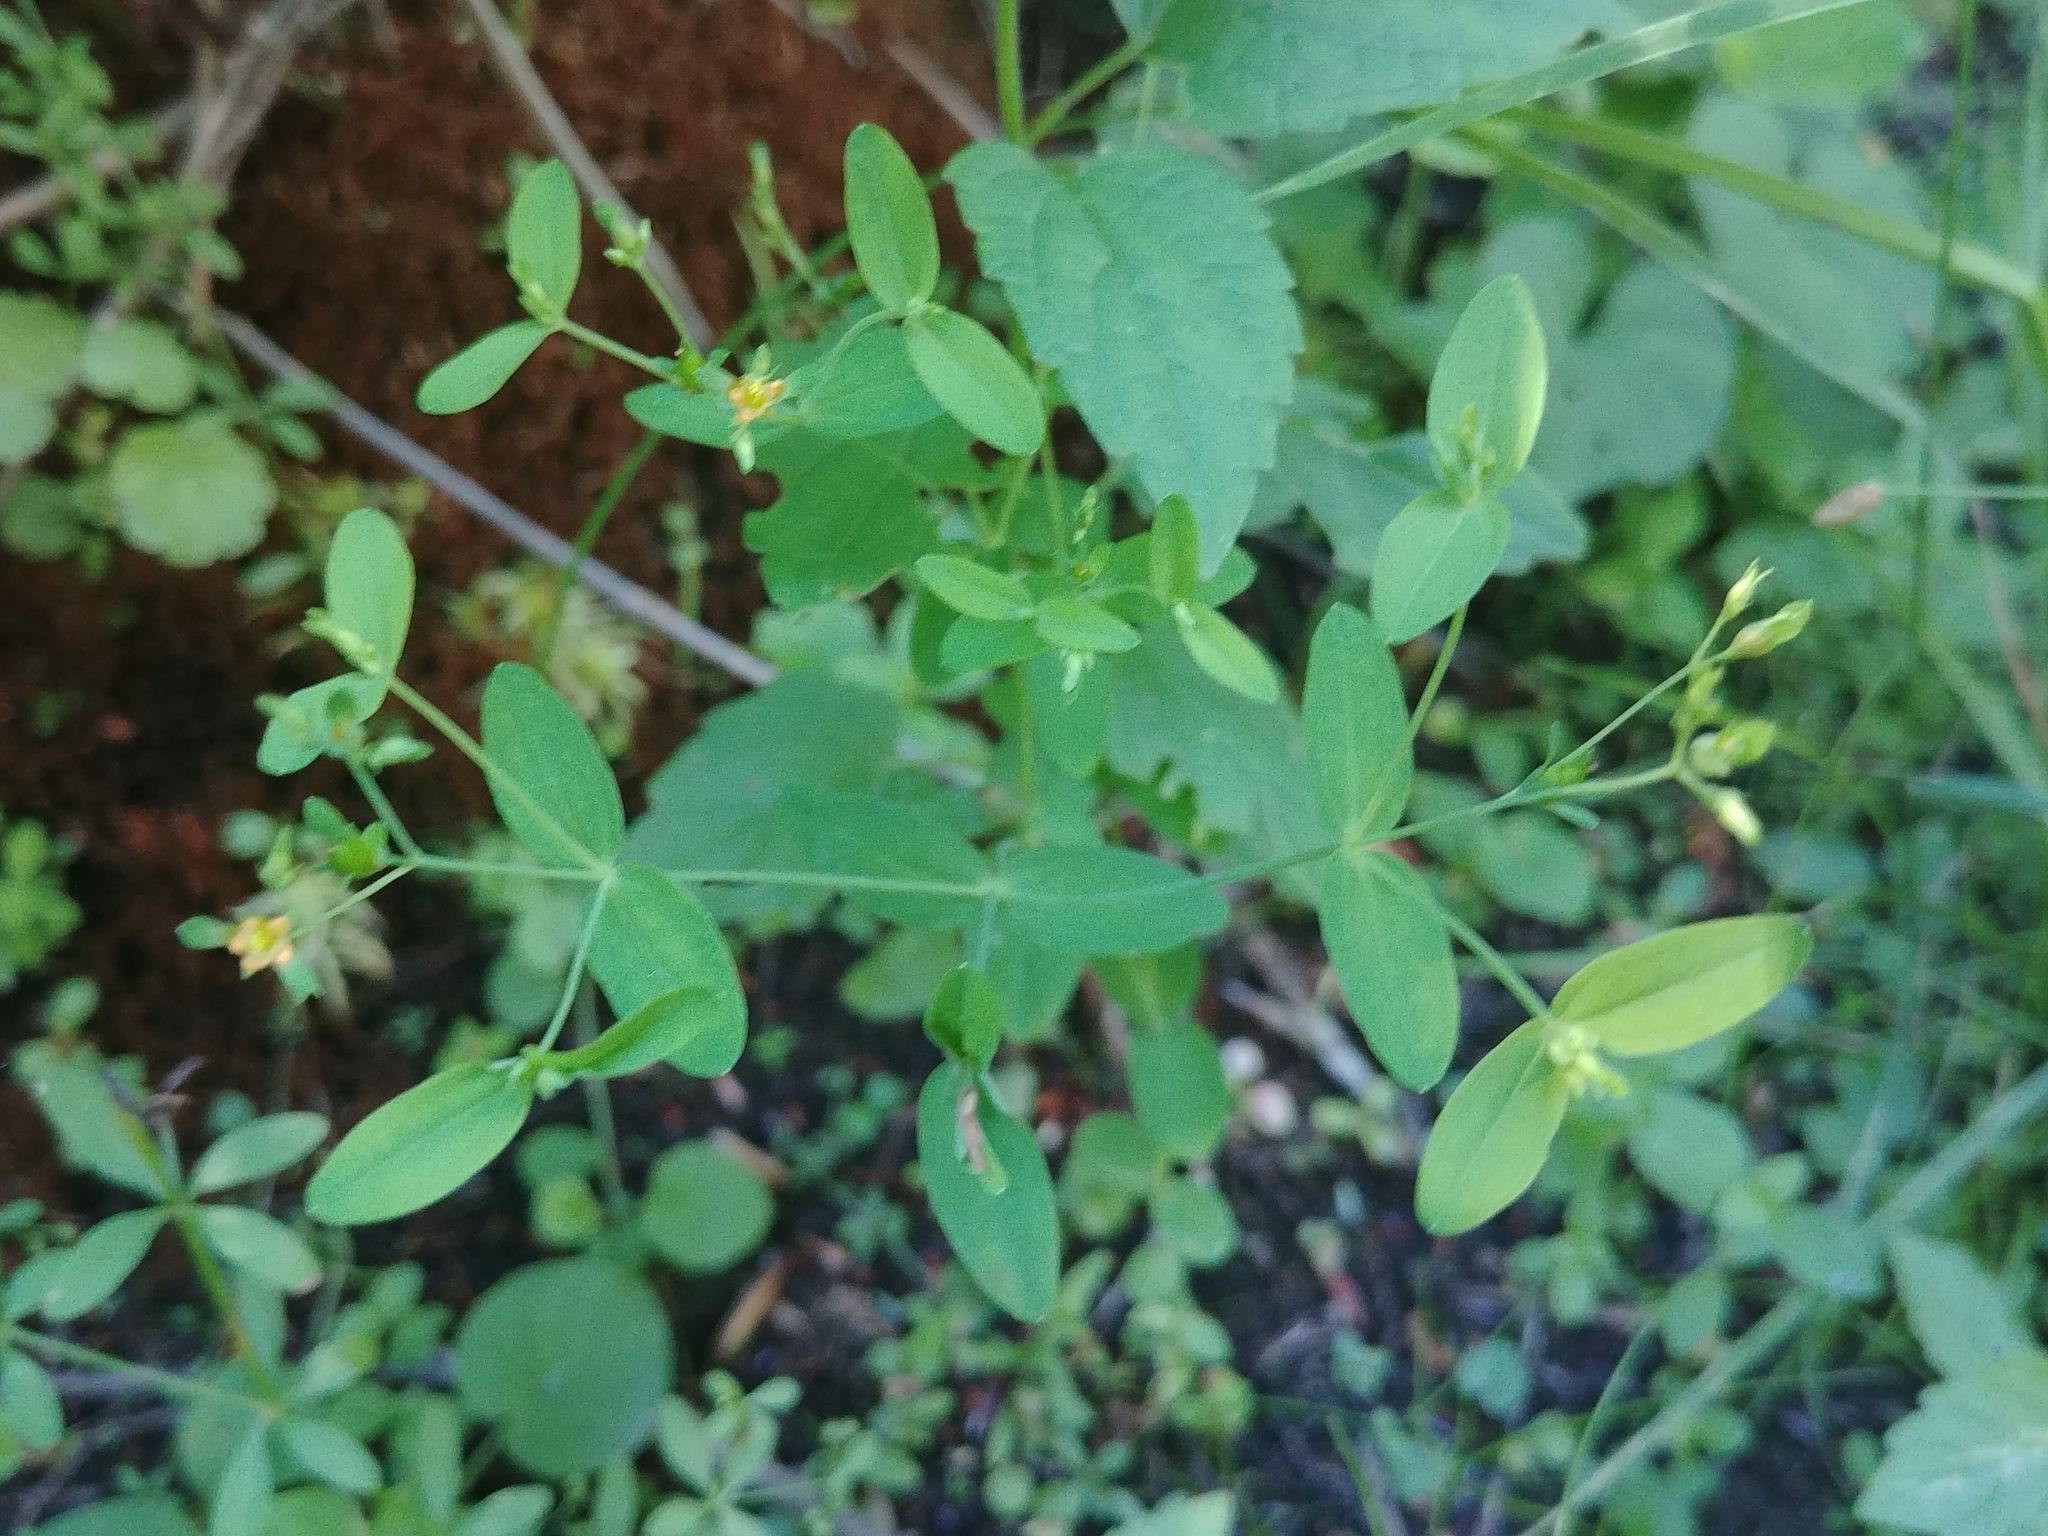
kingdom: Plantae
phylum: Tracheophyta
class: Magnoliopsida
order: Malpighiales
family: Hypericaceae
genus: Hypericum
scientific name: Hypericum mutilum
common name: Dwarf st. john's-wort
